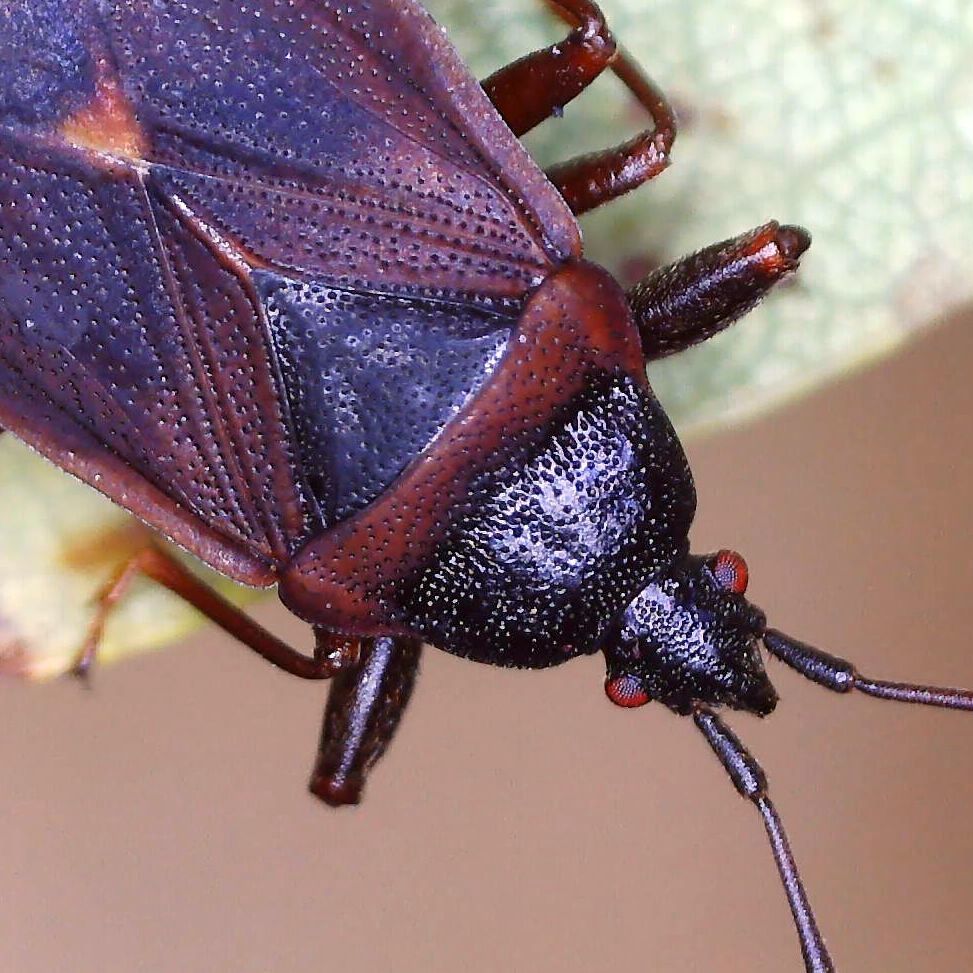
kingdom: Animalia
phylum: Arthropoda
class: Insecta
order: Hemiptera
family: Rhyparochromidae
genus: Gastrodes
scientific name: Gastrodes grossipes
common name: Pine cone bug
